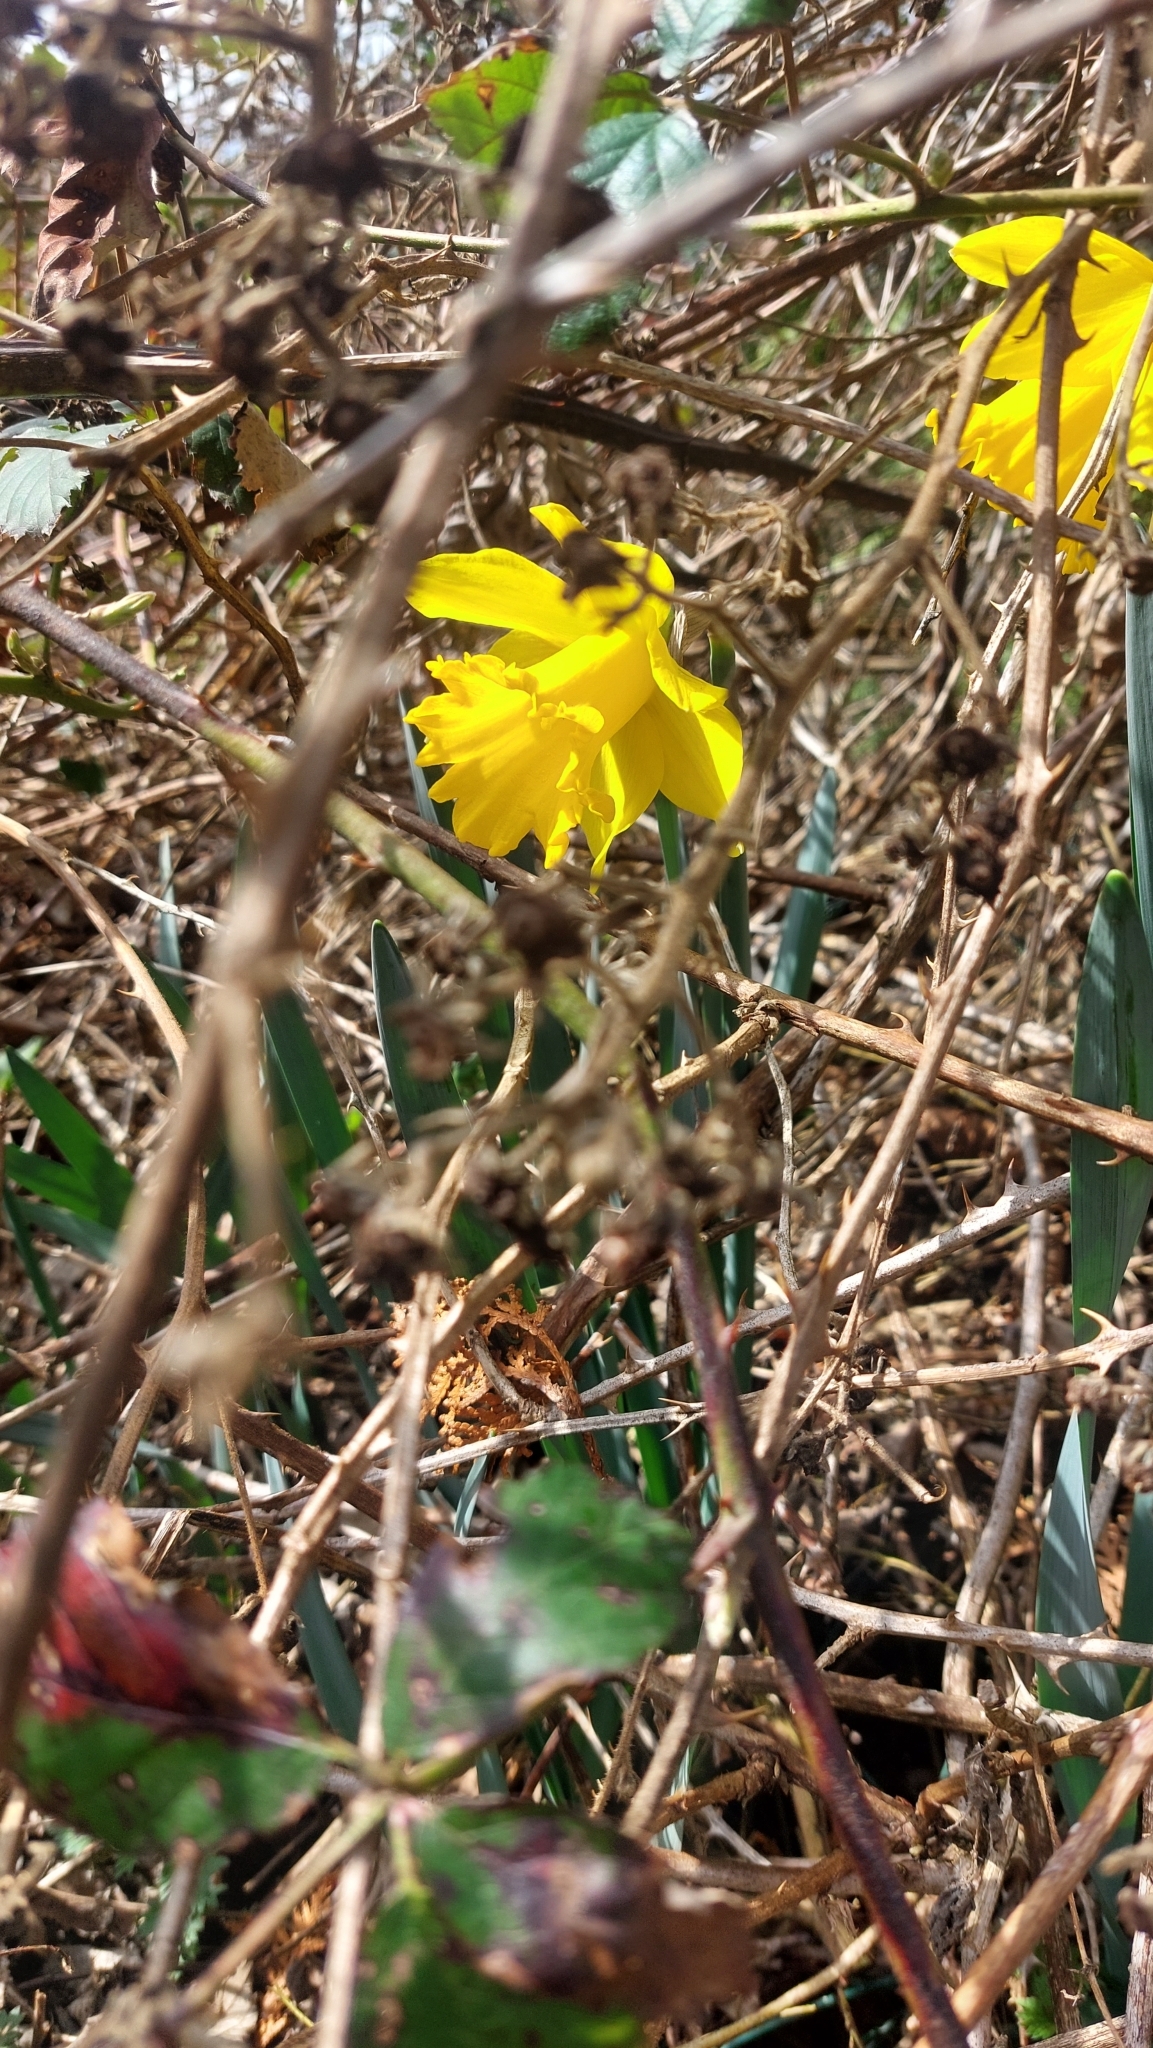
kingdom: Plantae
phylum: Tracheophyta
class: Liliopsida
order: Asparagales
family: Amaryllidaceae
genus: Narcissus
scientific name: Narcissus pseudonarcissus
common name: Daffodil
